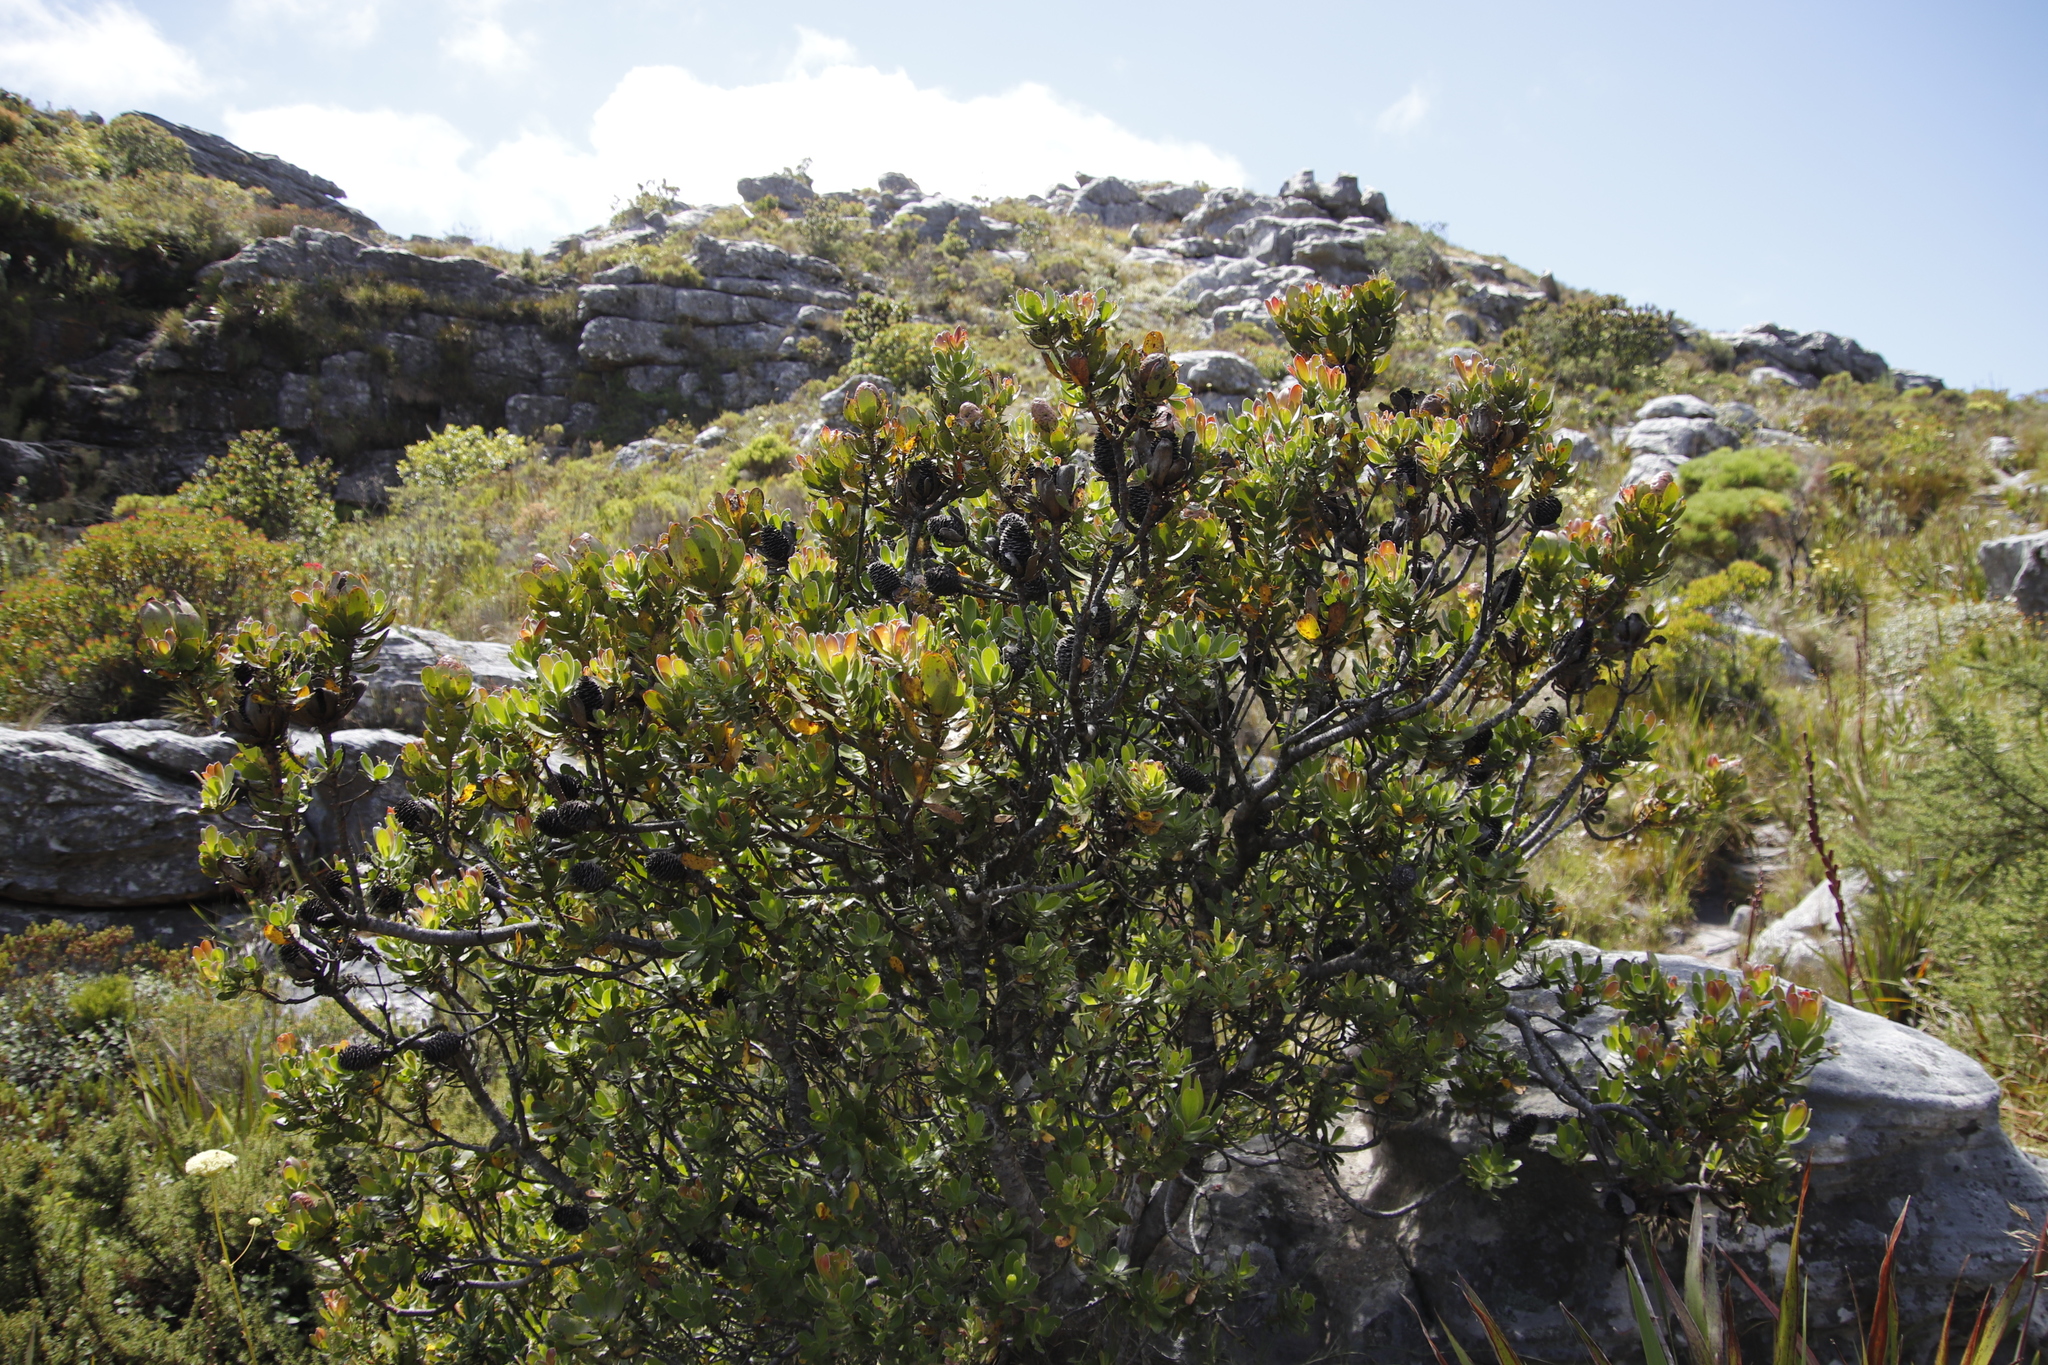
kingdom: Plantae
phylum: Tracheophyta
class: Magnoliopsida
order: Proteales
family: Proteaceae
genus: Leucadendron
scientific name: Leucadendron strobilinum
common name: Mountain rose
